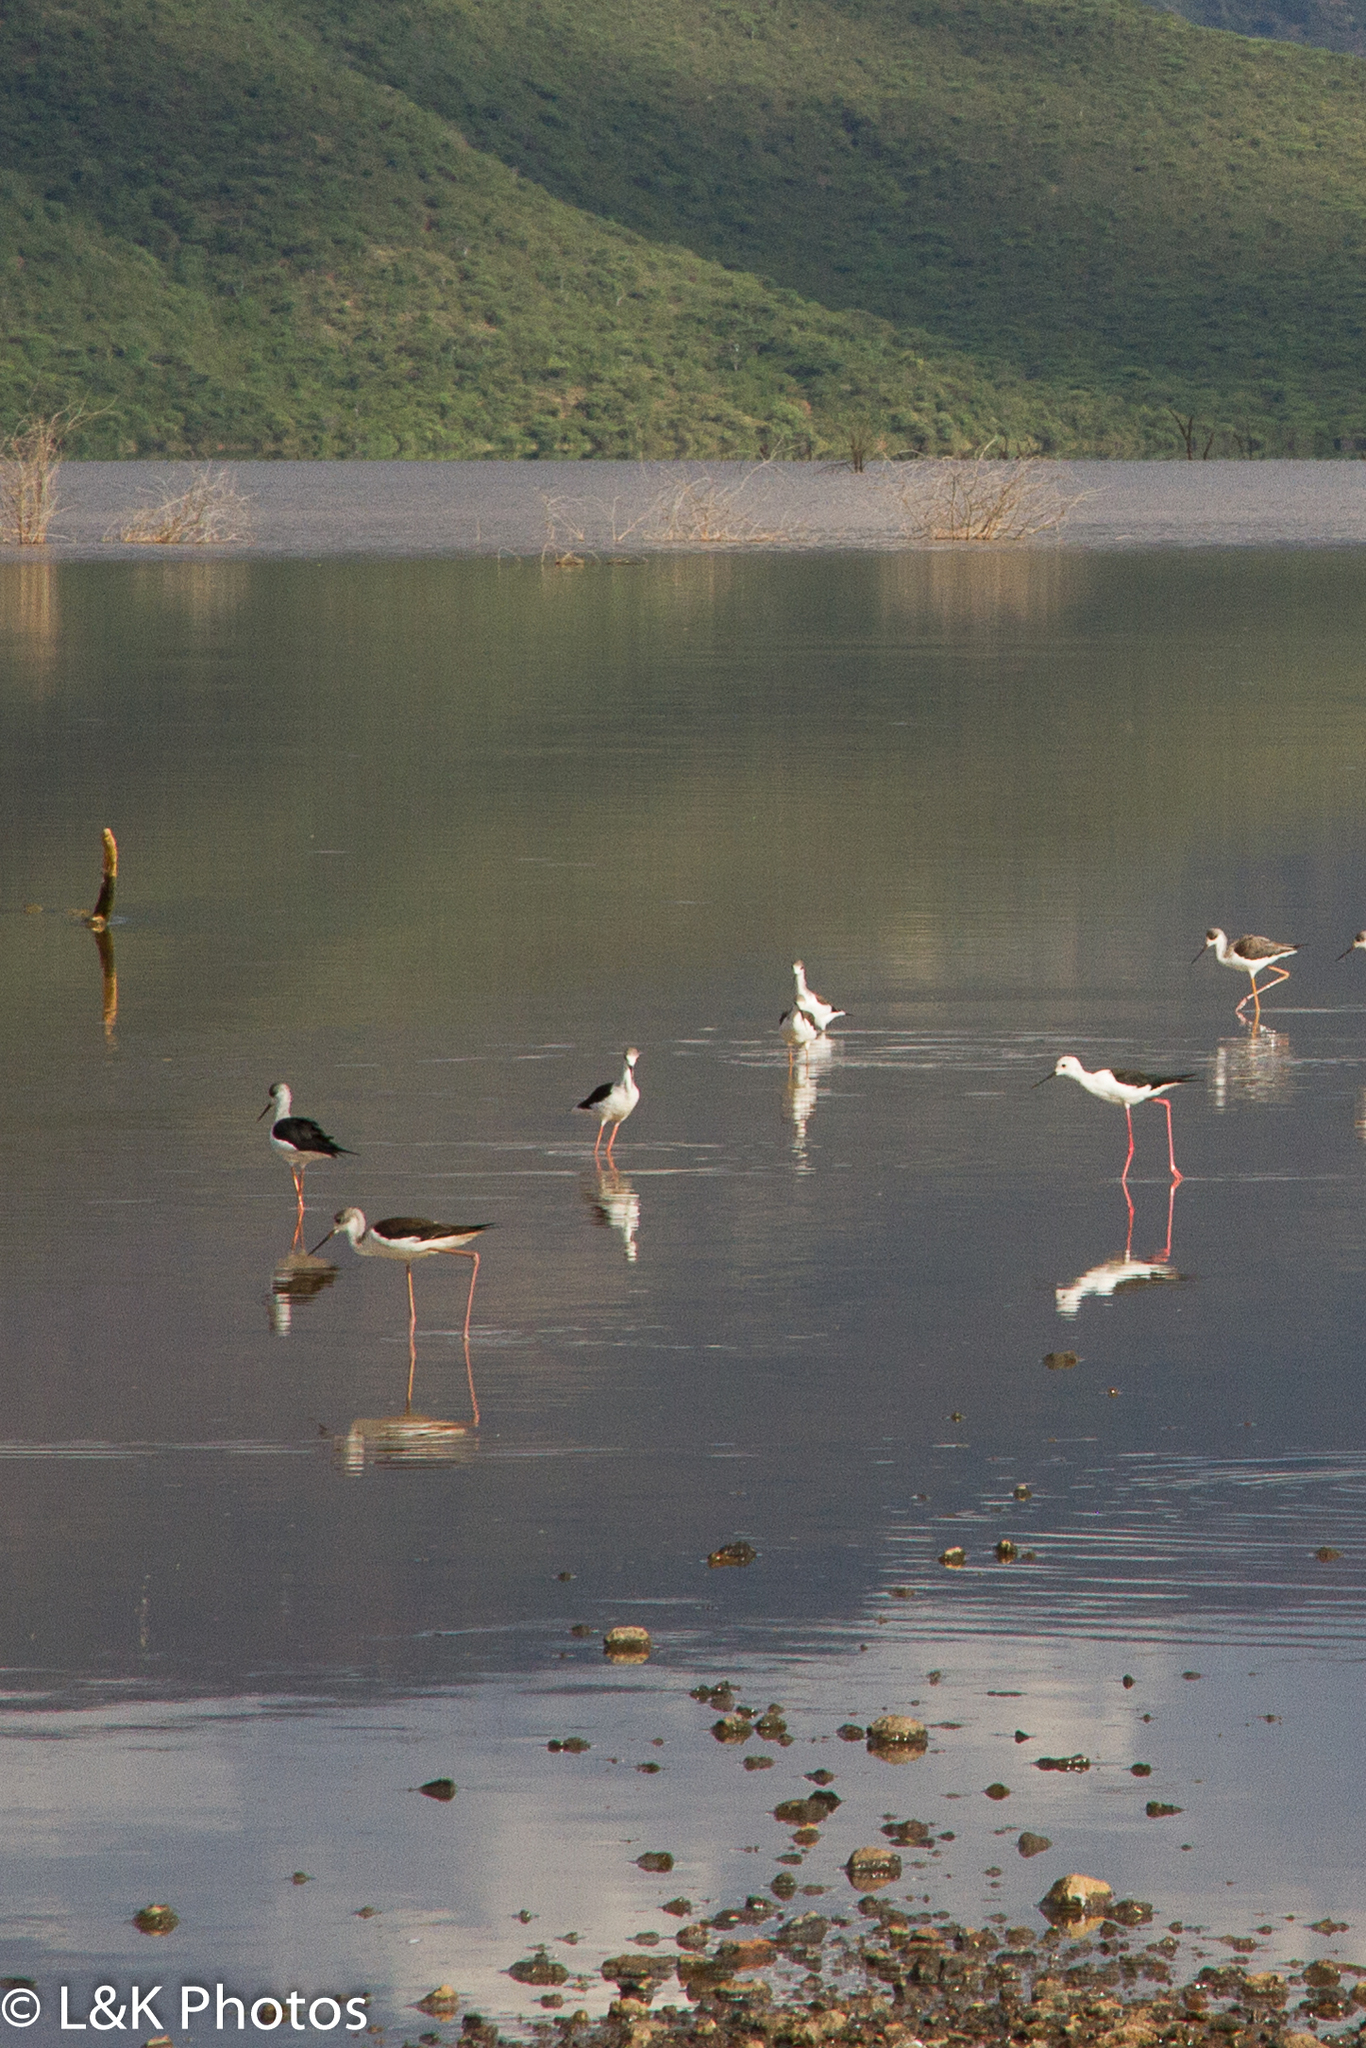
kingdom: Animalia
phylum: Chordata
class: Aves
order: Charadriiformes
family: Recurvirostridae
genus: Himantopus
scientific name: Himantopus himantopus
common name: Black-winged stilt
